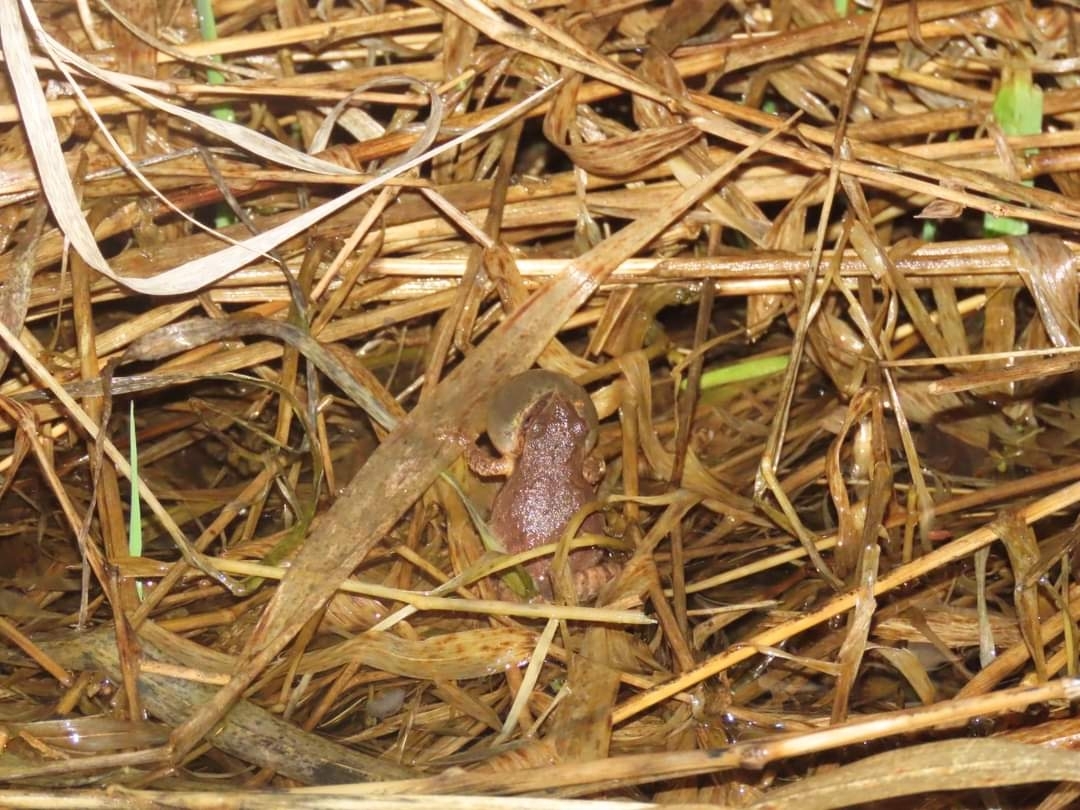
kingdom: Animalia
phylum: Chordata
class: Amphibia
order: Anura
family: Hylidae
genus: Pseudacris
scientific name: Pseudacris crucifer
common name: Spring peeper
